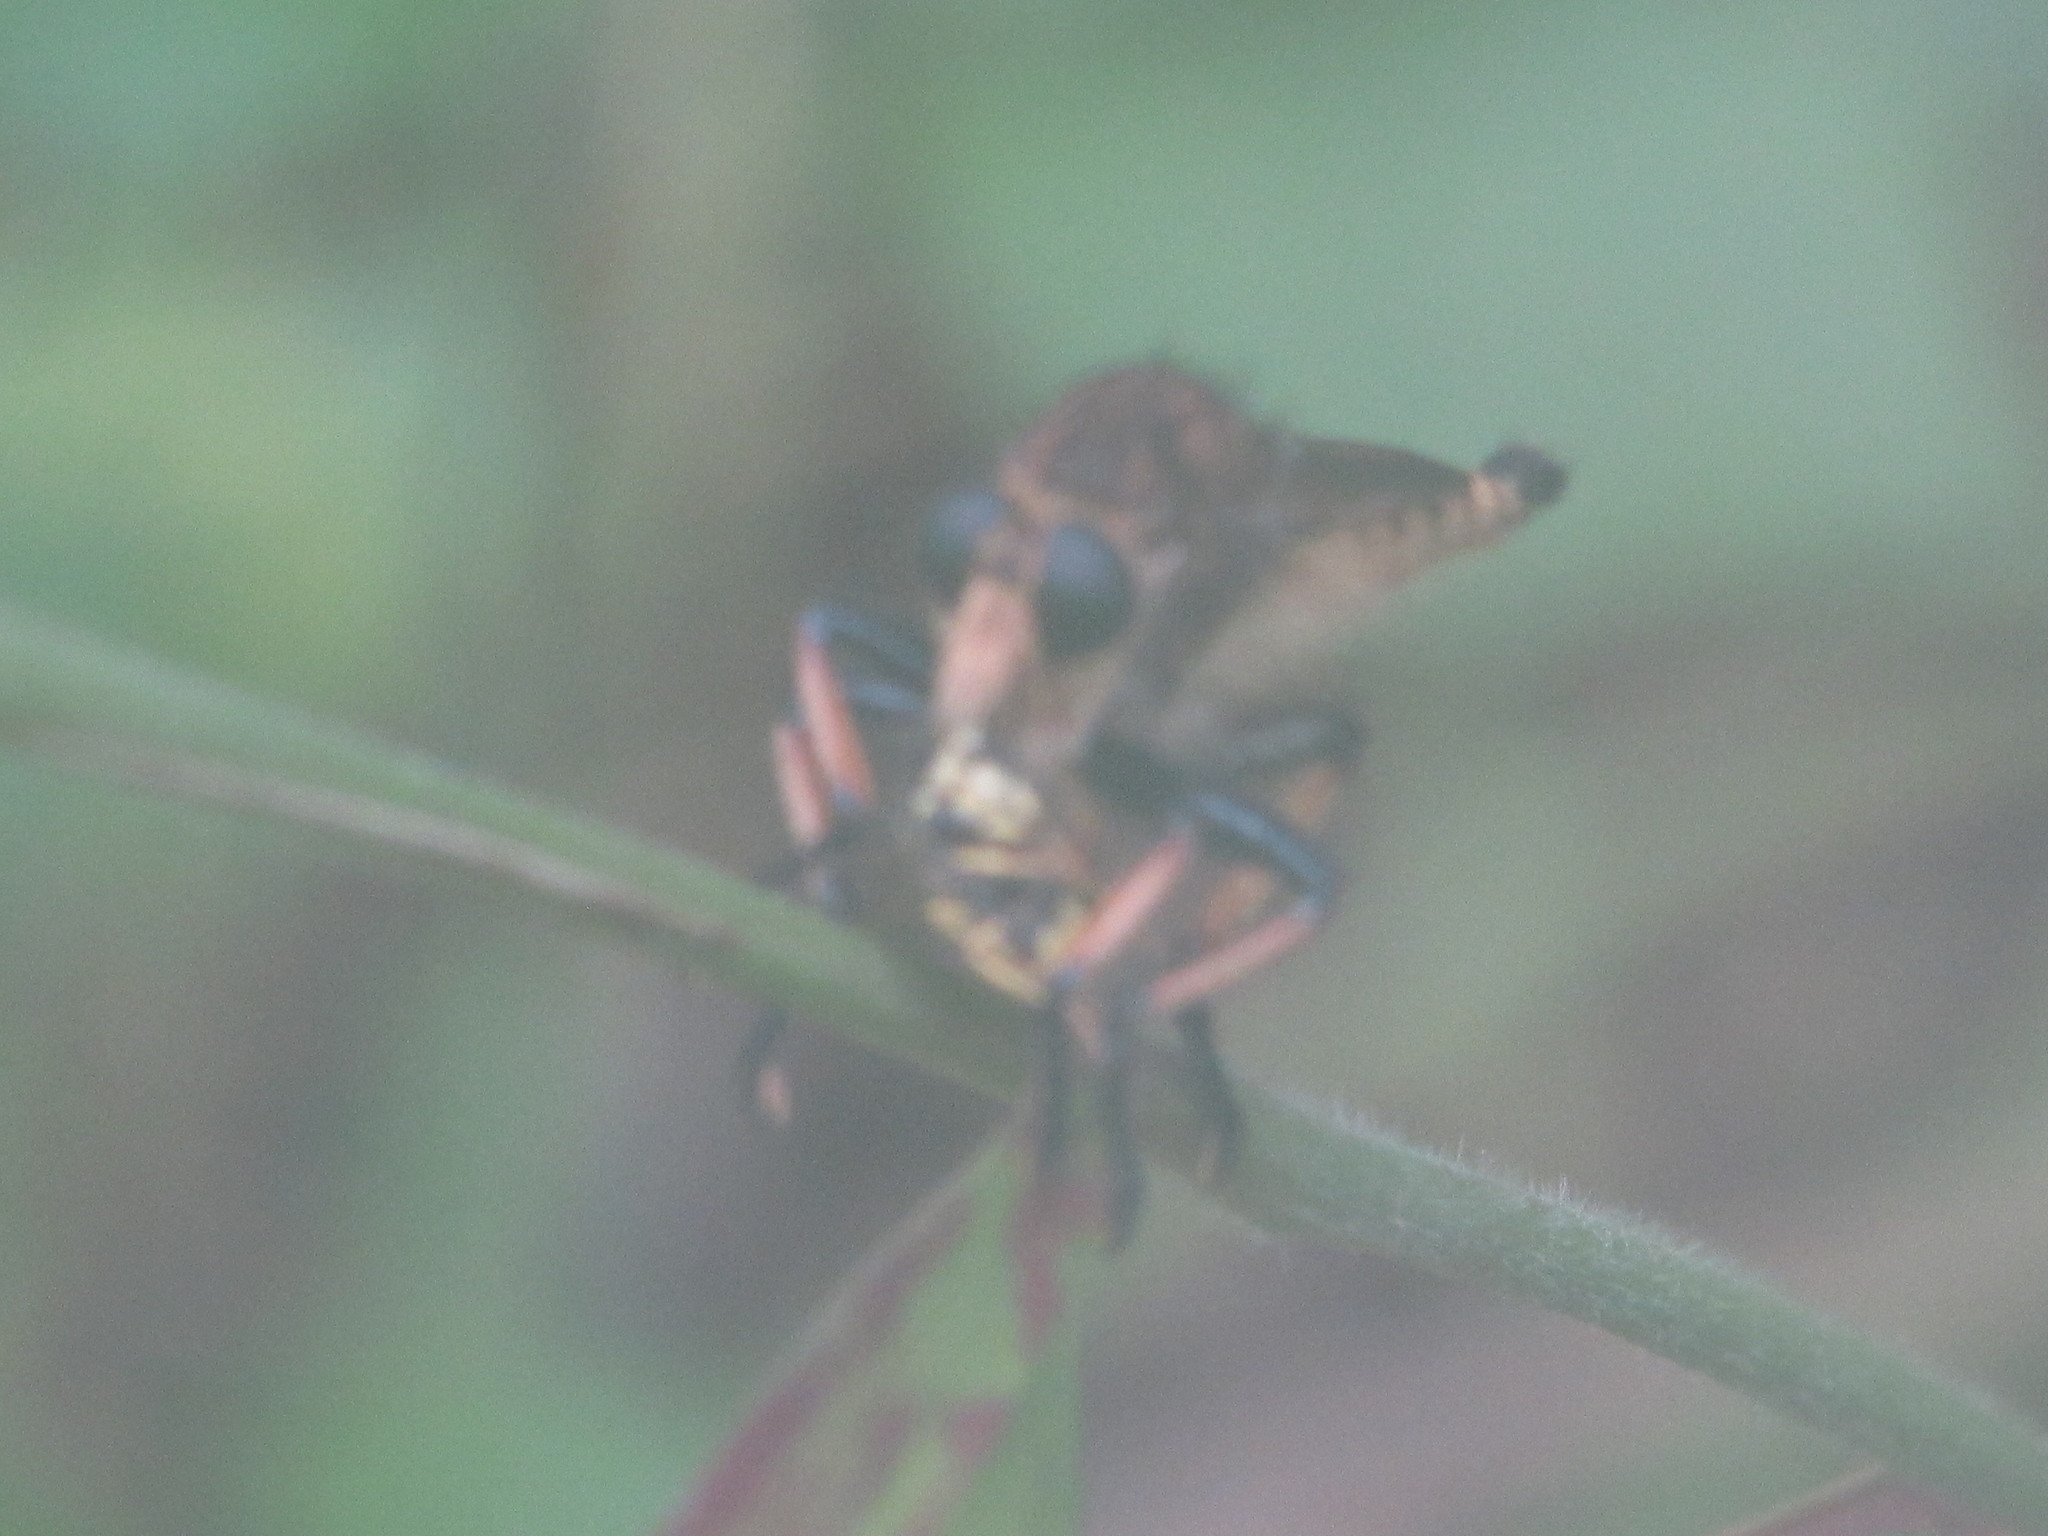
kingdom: Animalia
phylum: Arthropoda
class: Insecta
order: Diptera
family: Asilidae
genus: Promachus
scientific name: Promachus rufipes
